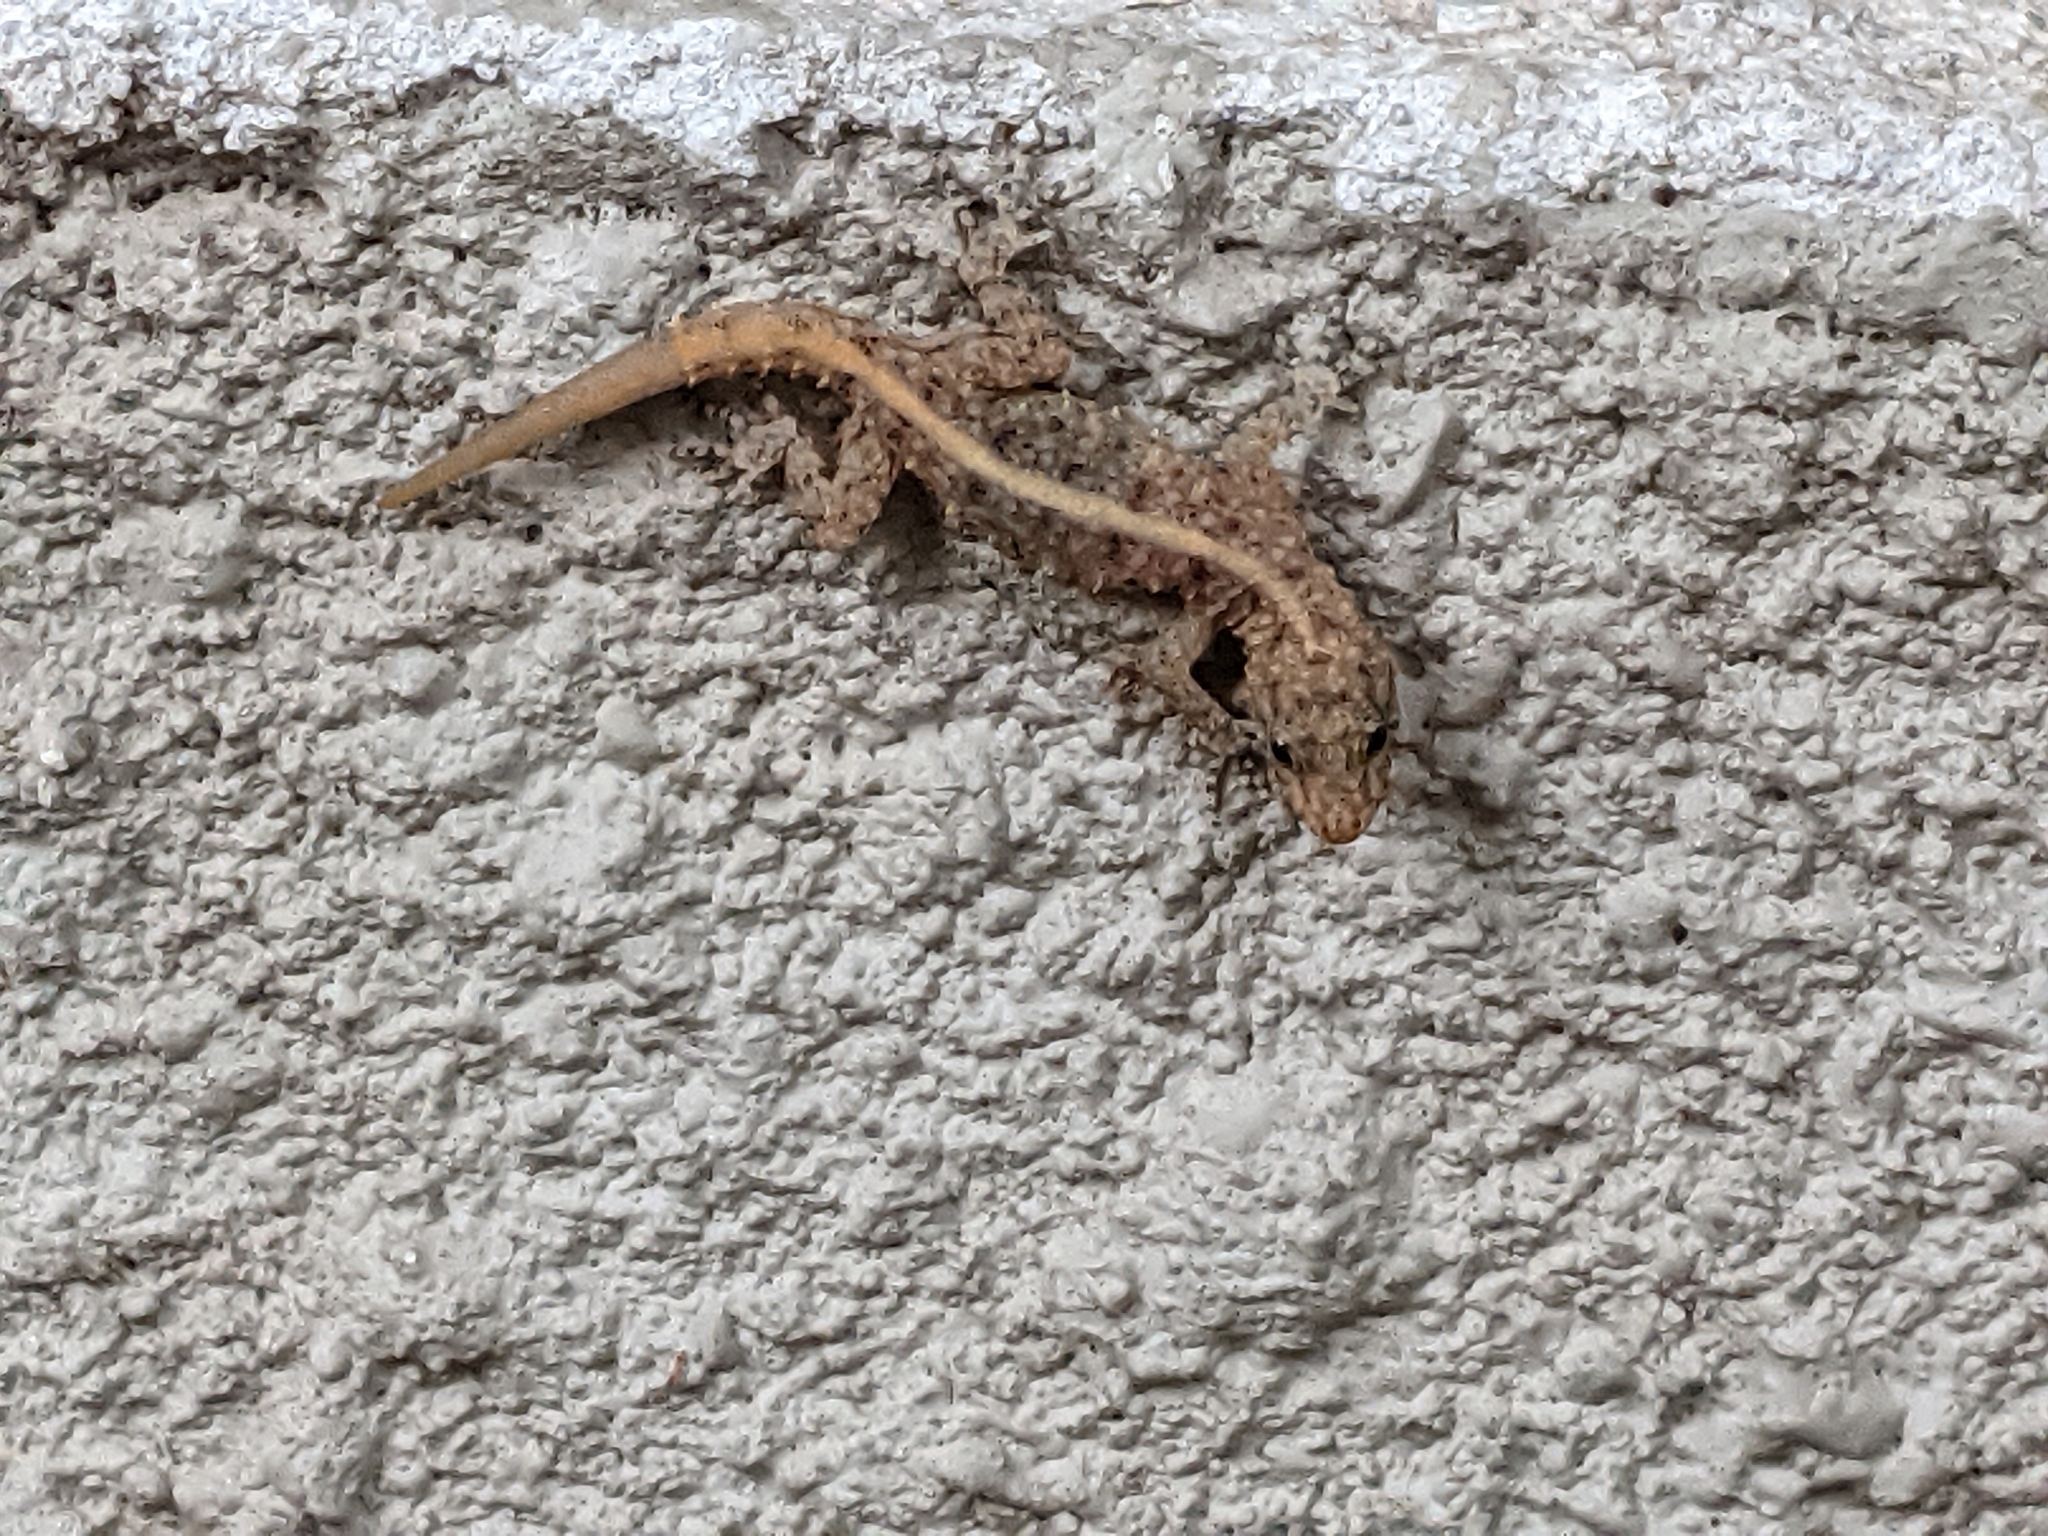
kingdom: Animalia
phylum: Chordata
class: Squamata
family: Gekkonidae
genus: Cnemaspis
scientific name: Cnemaspis mysoriensis
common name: Mysore day gecko
